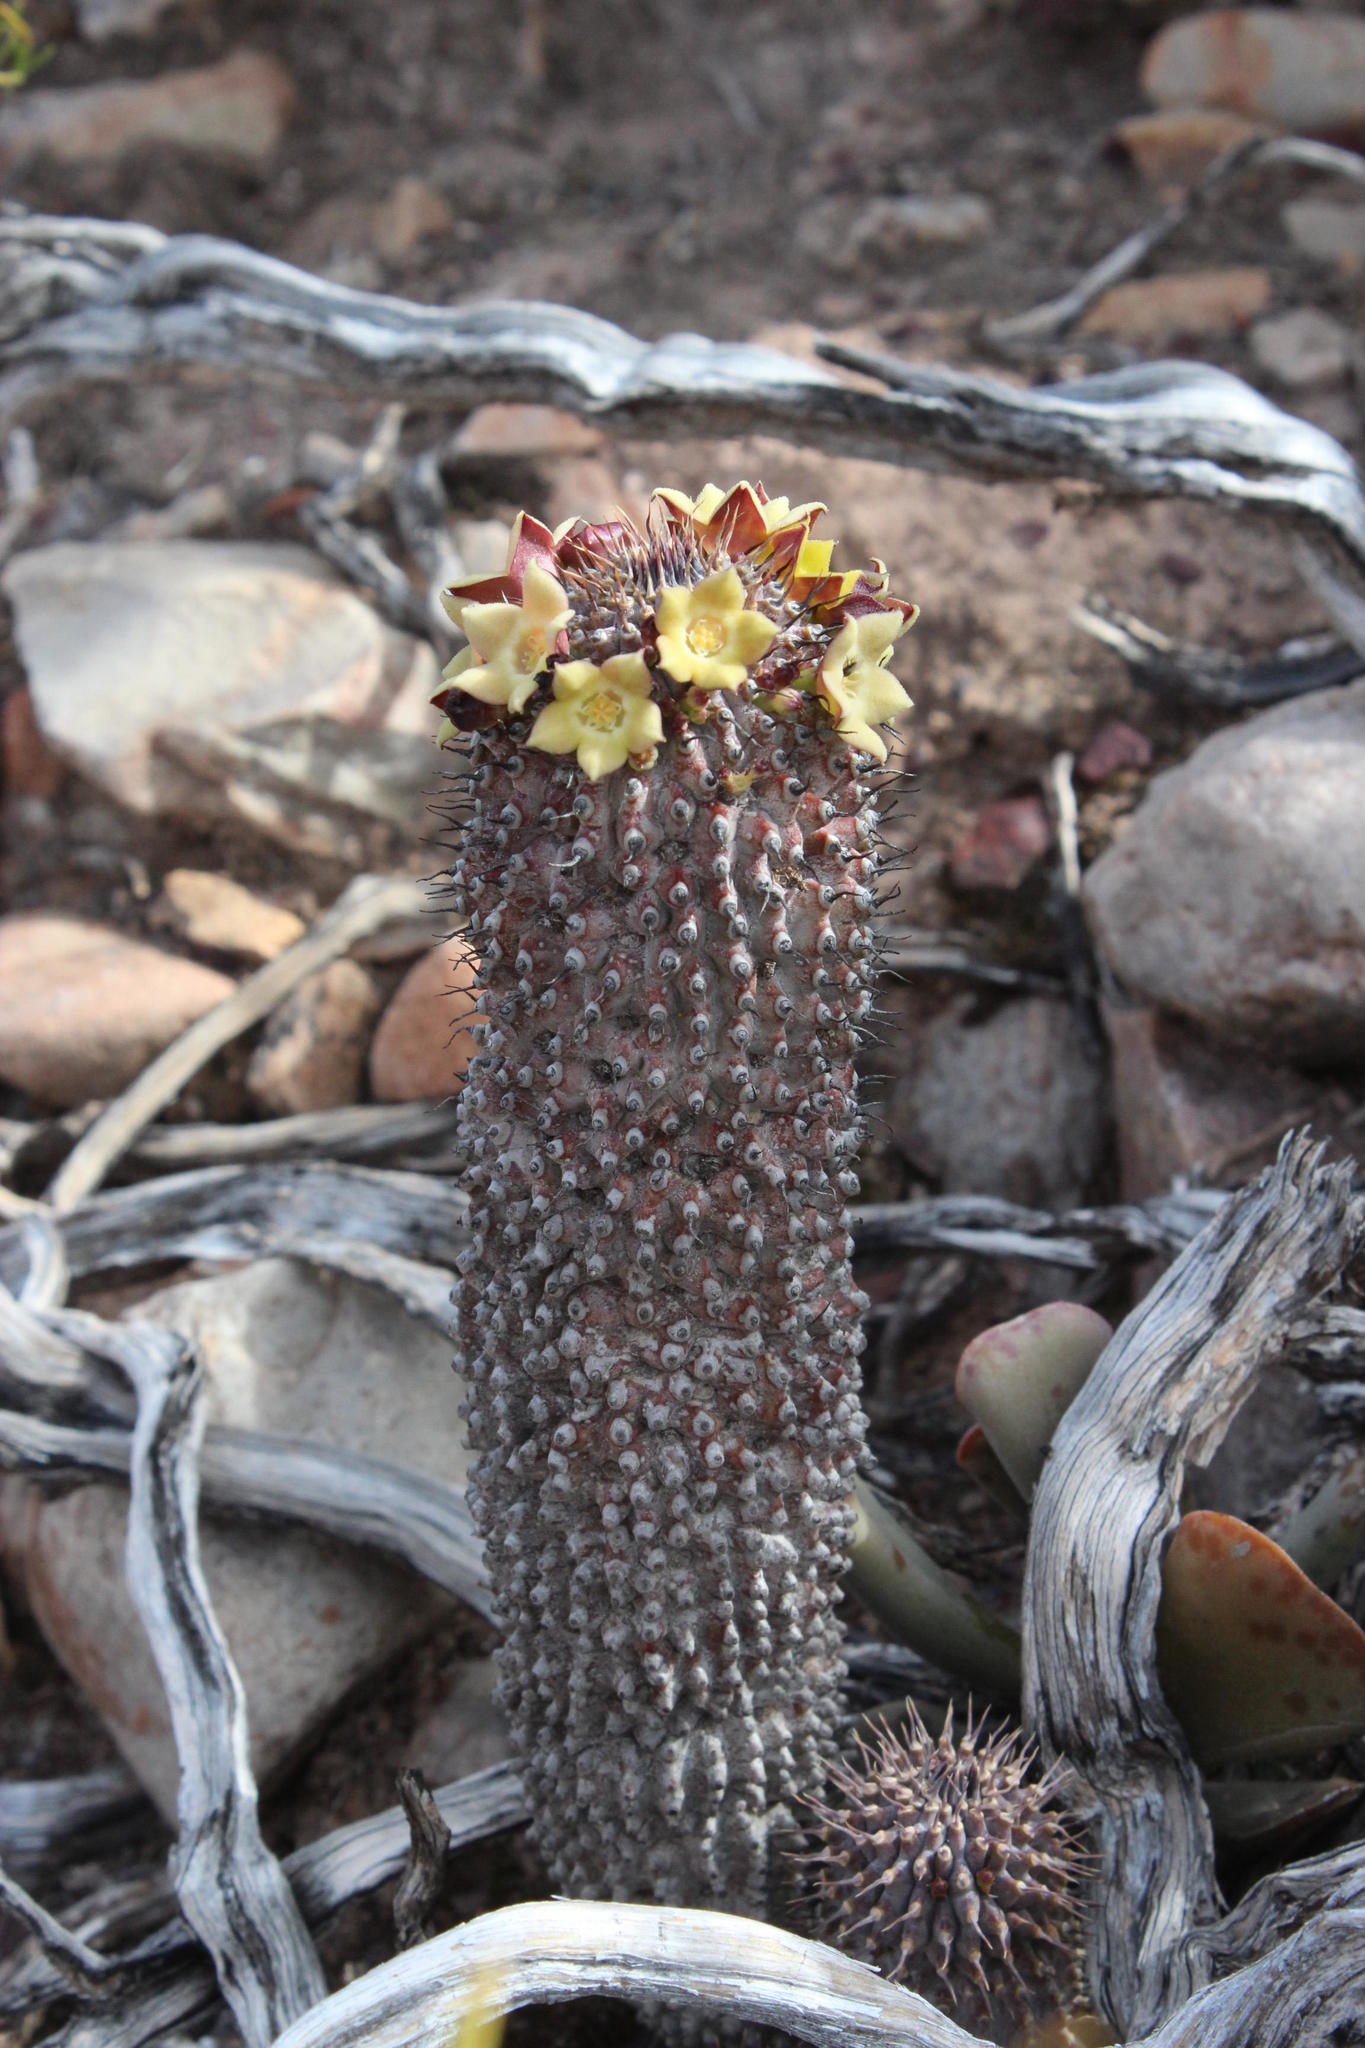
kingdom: Plantae
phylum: Tracheophyta
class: Magnoliopsida
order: Gentianales
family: Apocynaceae
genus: Ceropegia
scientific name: Ceropegia coleorum
